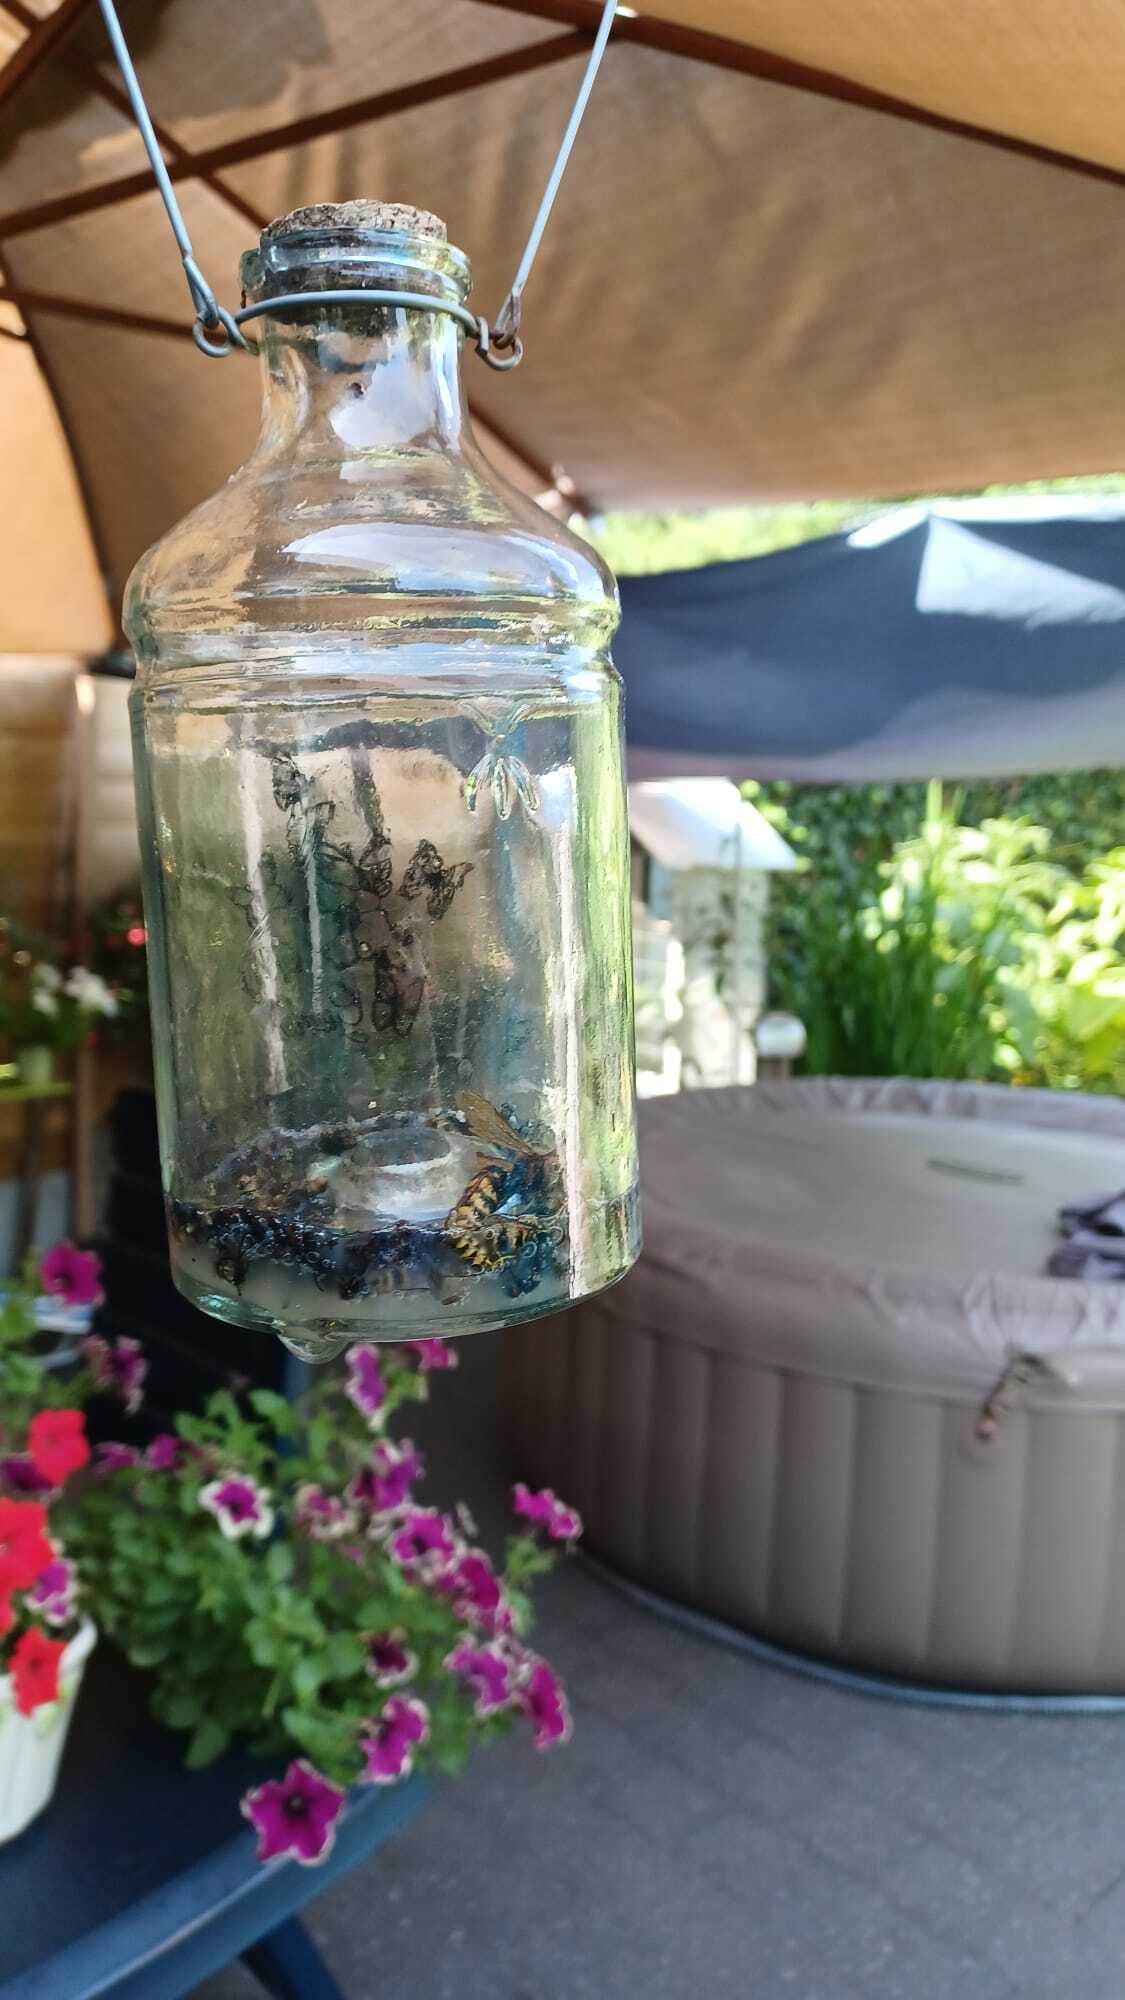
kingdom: Animalia
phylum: Arthropoda
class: Insecta
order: Hymenoptera
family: Vespidae
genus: Vespa
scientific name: Vespa crabro
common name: Hornet
